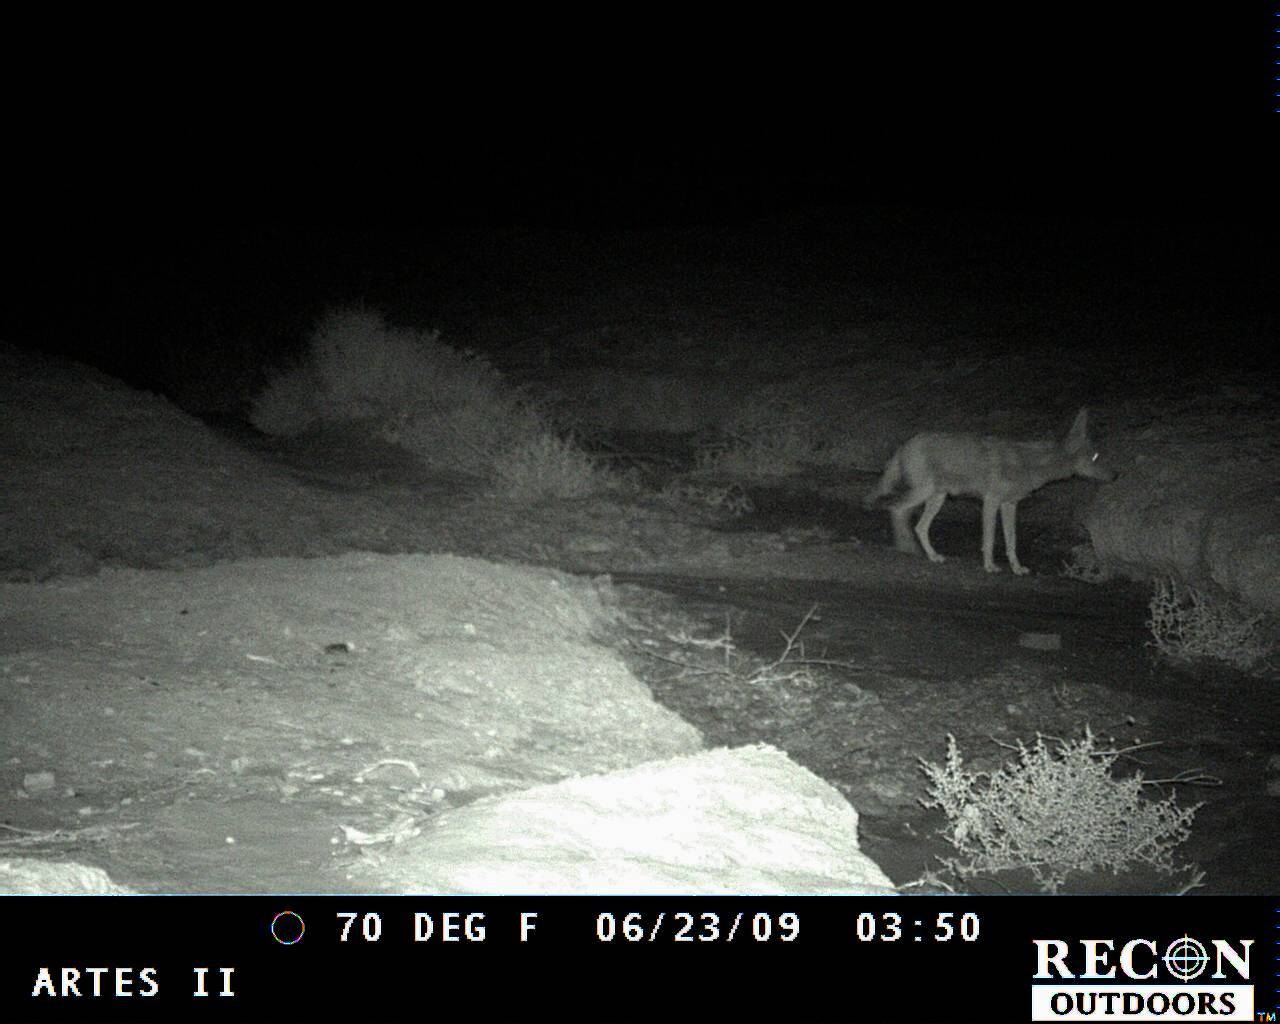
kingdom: Animalia
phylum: Chordata
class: Mammalia
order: Carnivora
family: Canidae
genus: Canis
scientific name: Canis latrans
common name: Coyote
